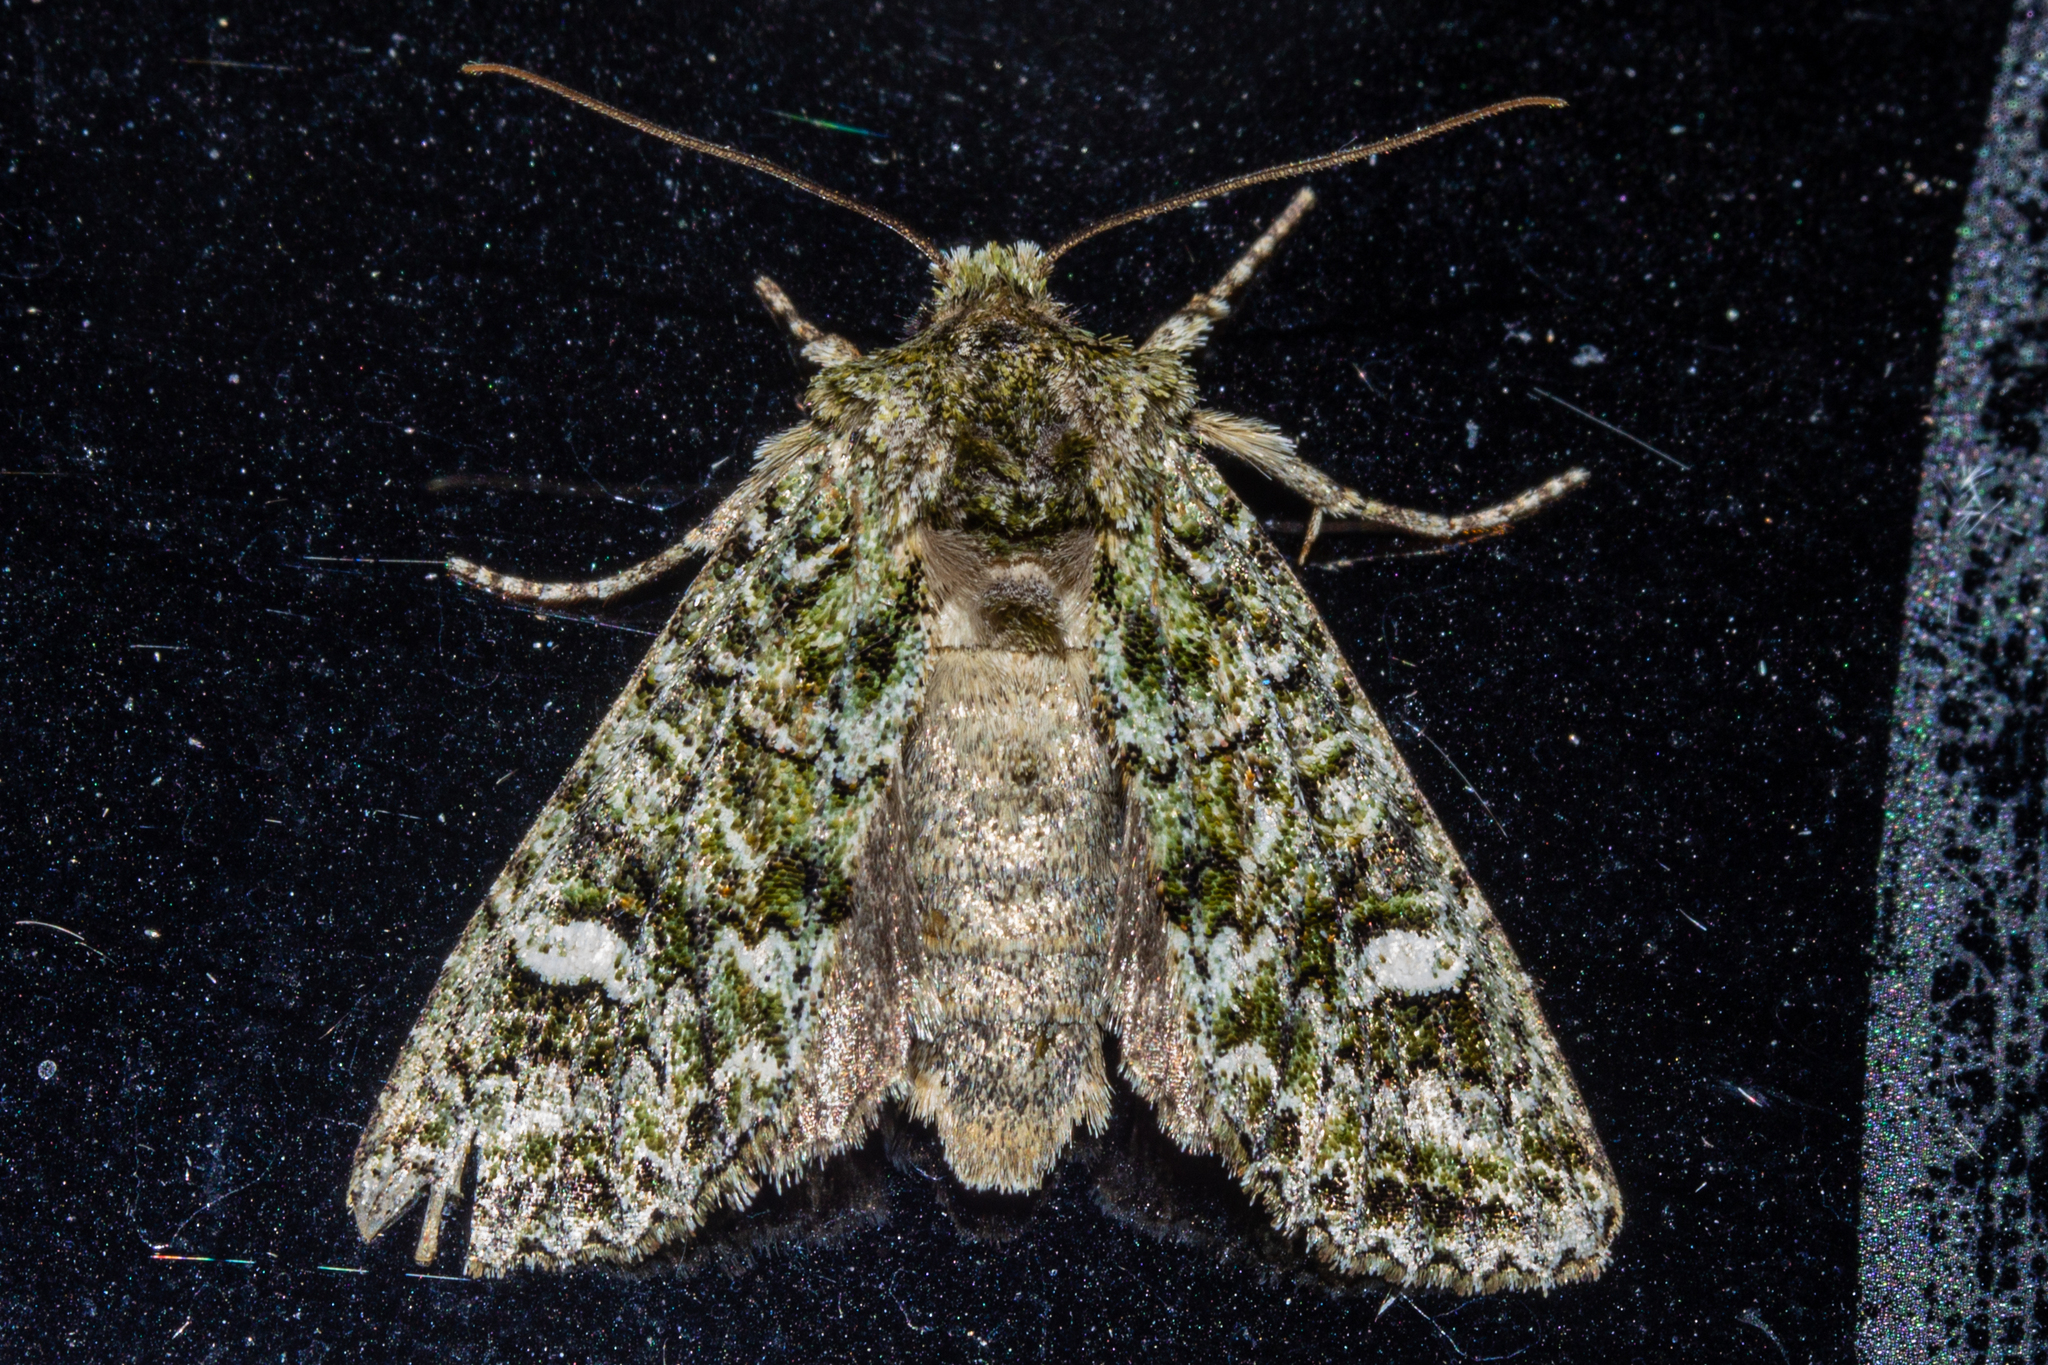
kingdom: Animalia
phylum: Arthropoda
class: Insecta
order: Lepidoptera
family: Noctuidae
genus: Ichneutica
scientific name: Ichneutica
